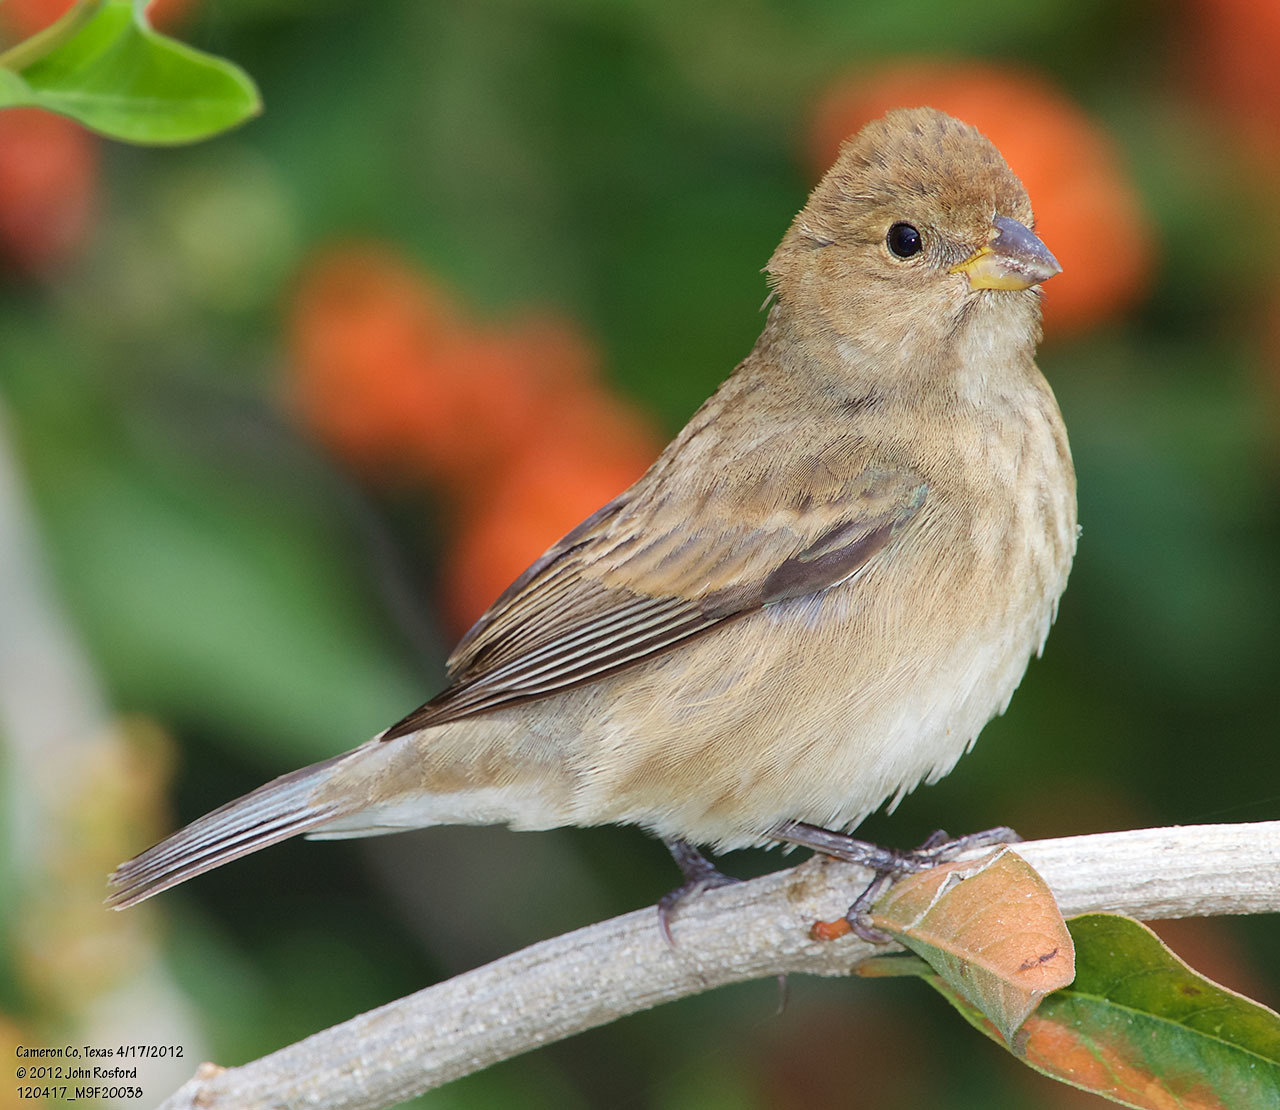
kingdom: Animalia
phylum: Chordata
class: Aves
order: Passeriformes
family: Cardinalidae
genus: Passerina
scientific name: Passerina cyanea
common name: Indigo bunting
